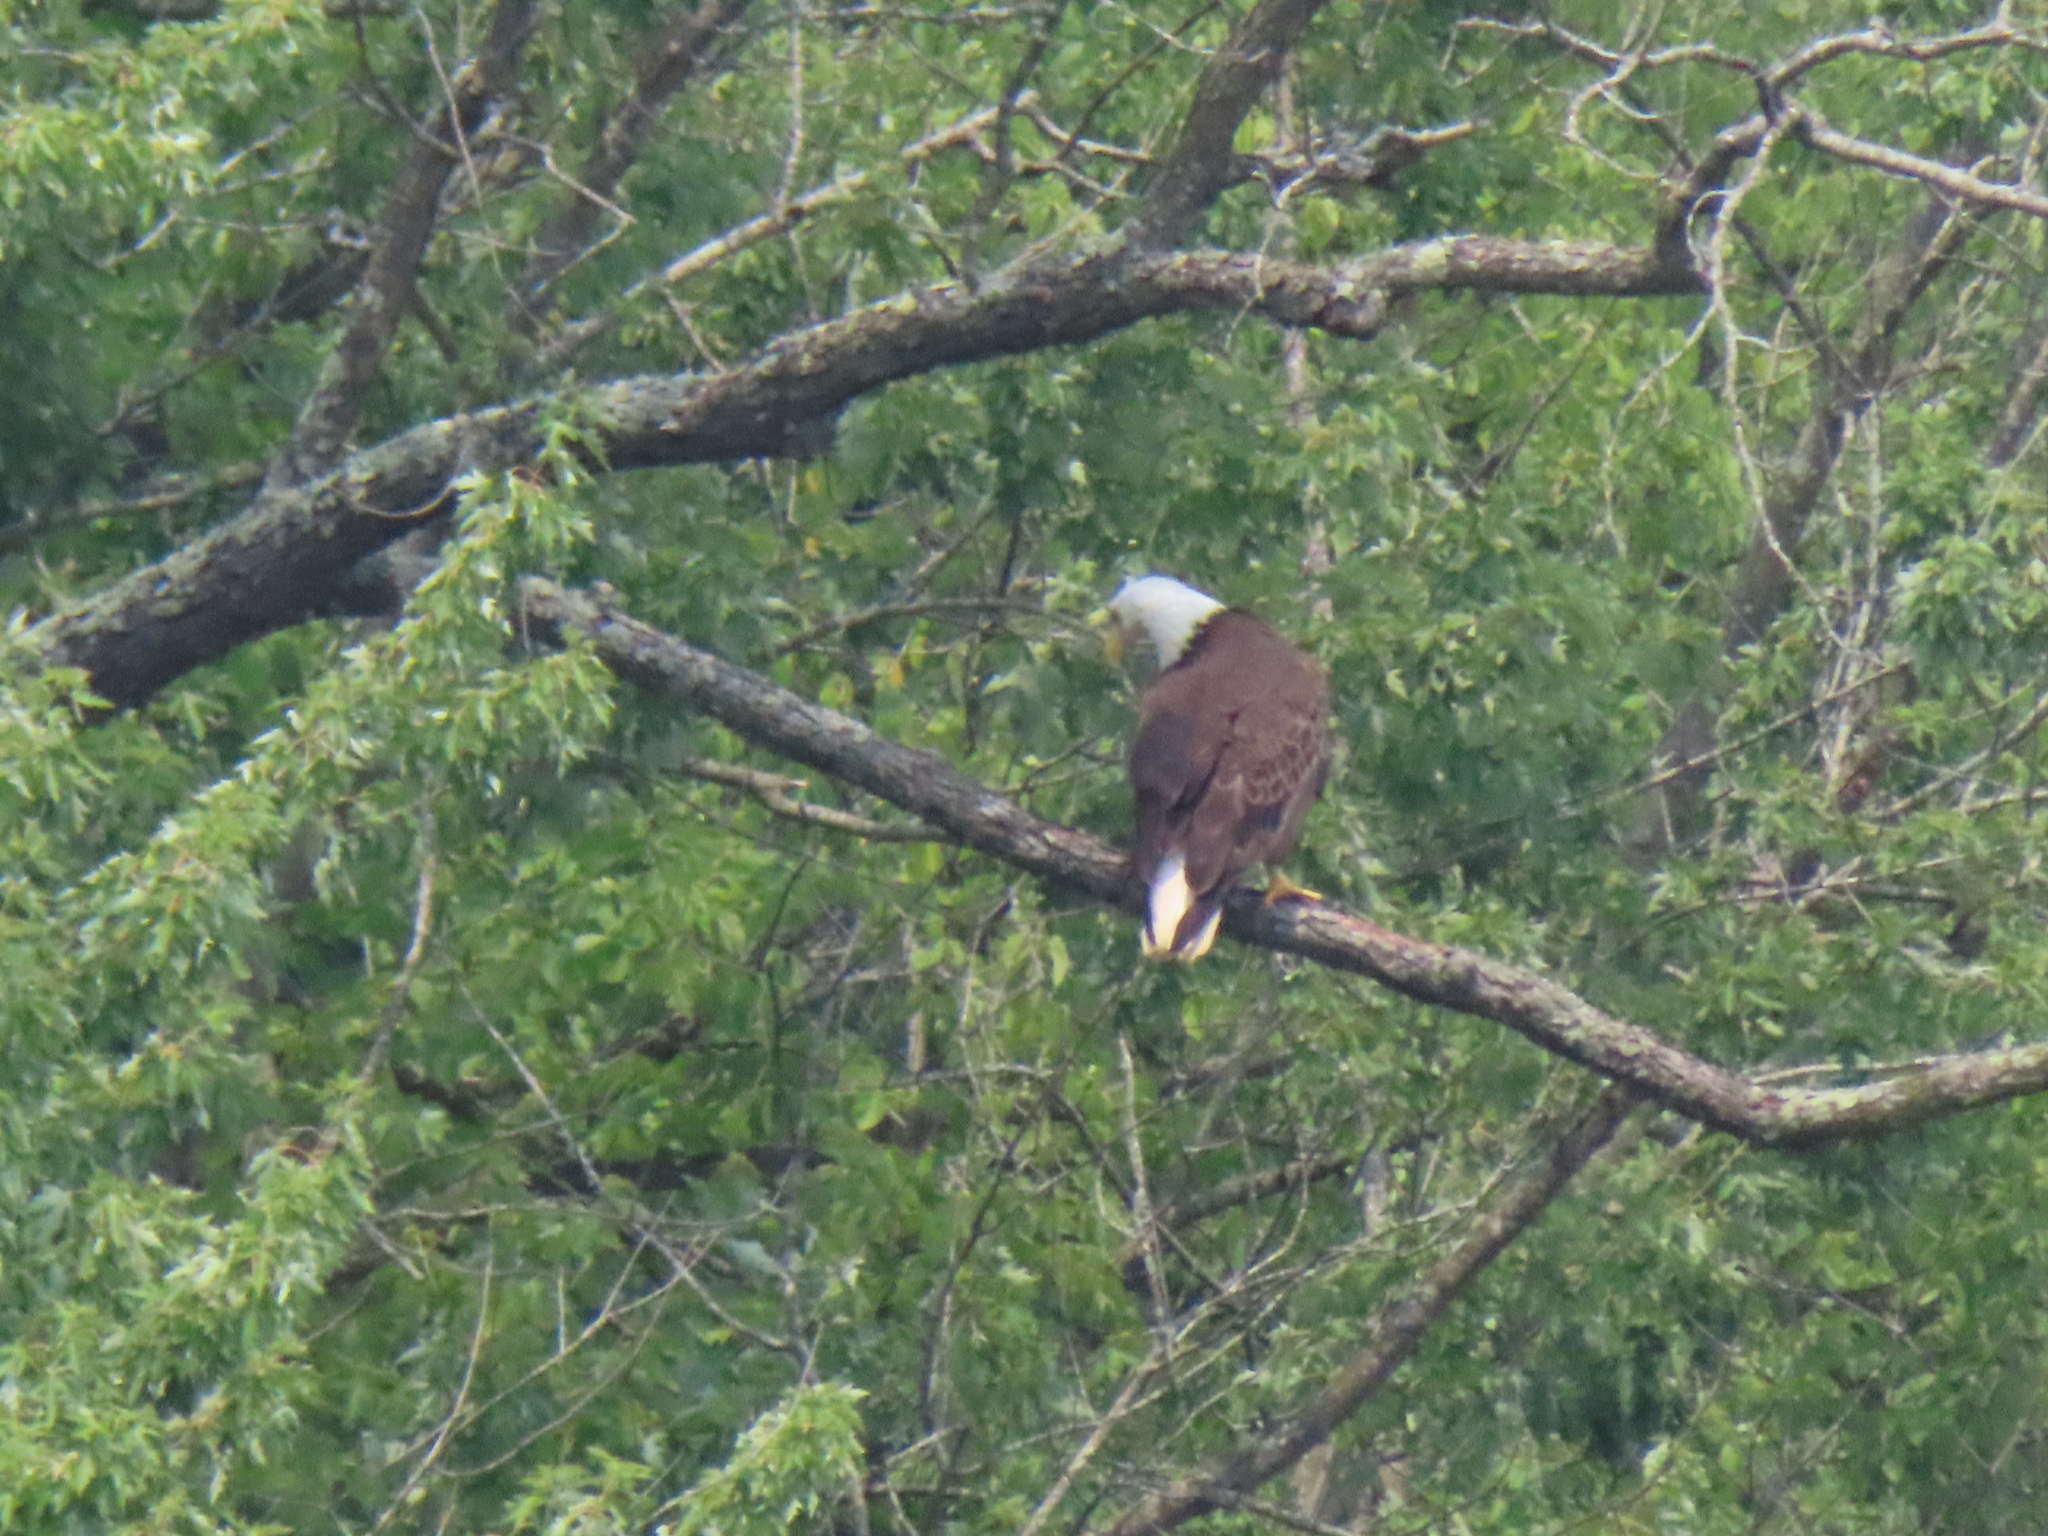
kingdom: Animalia
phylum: Chordata
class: Aves
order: Accipitriformes
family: Accipitridae
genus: Haliaeetus
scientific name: Haliaeetus leucocephalus
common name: Bald eagle
